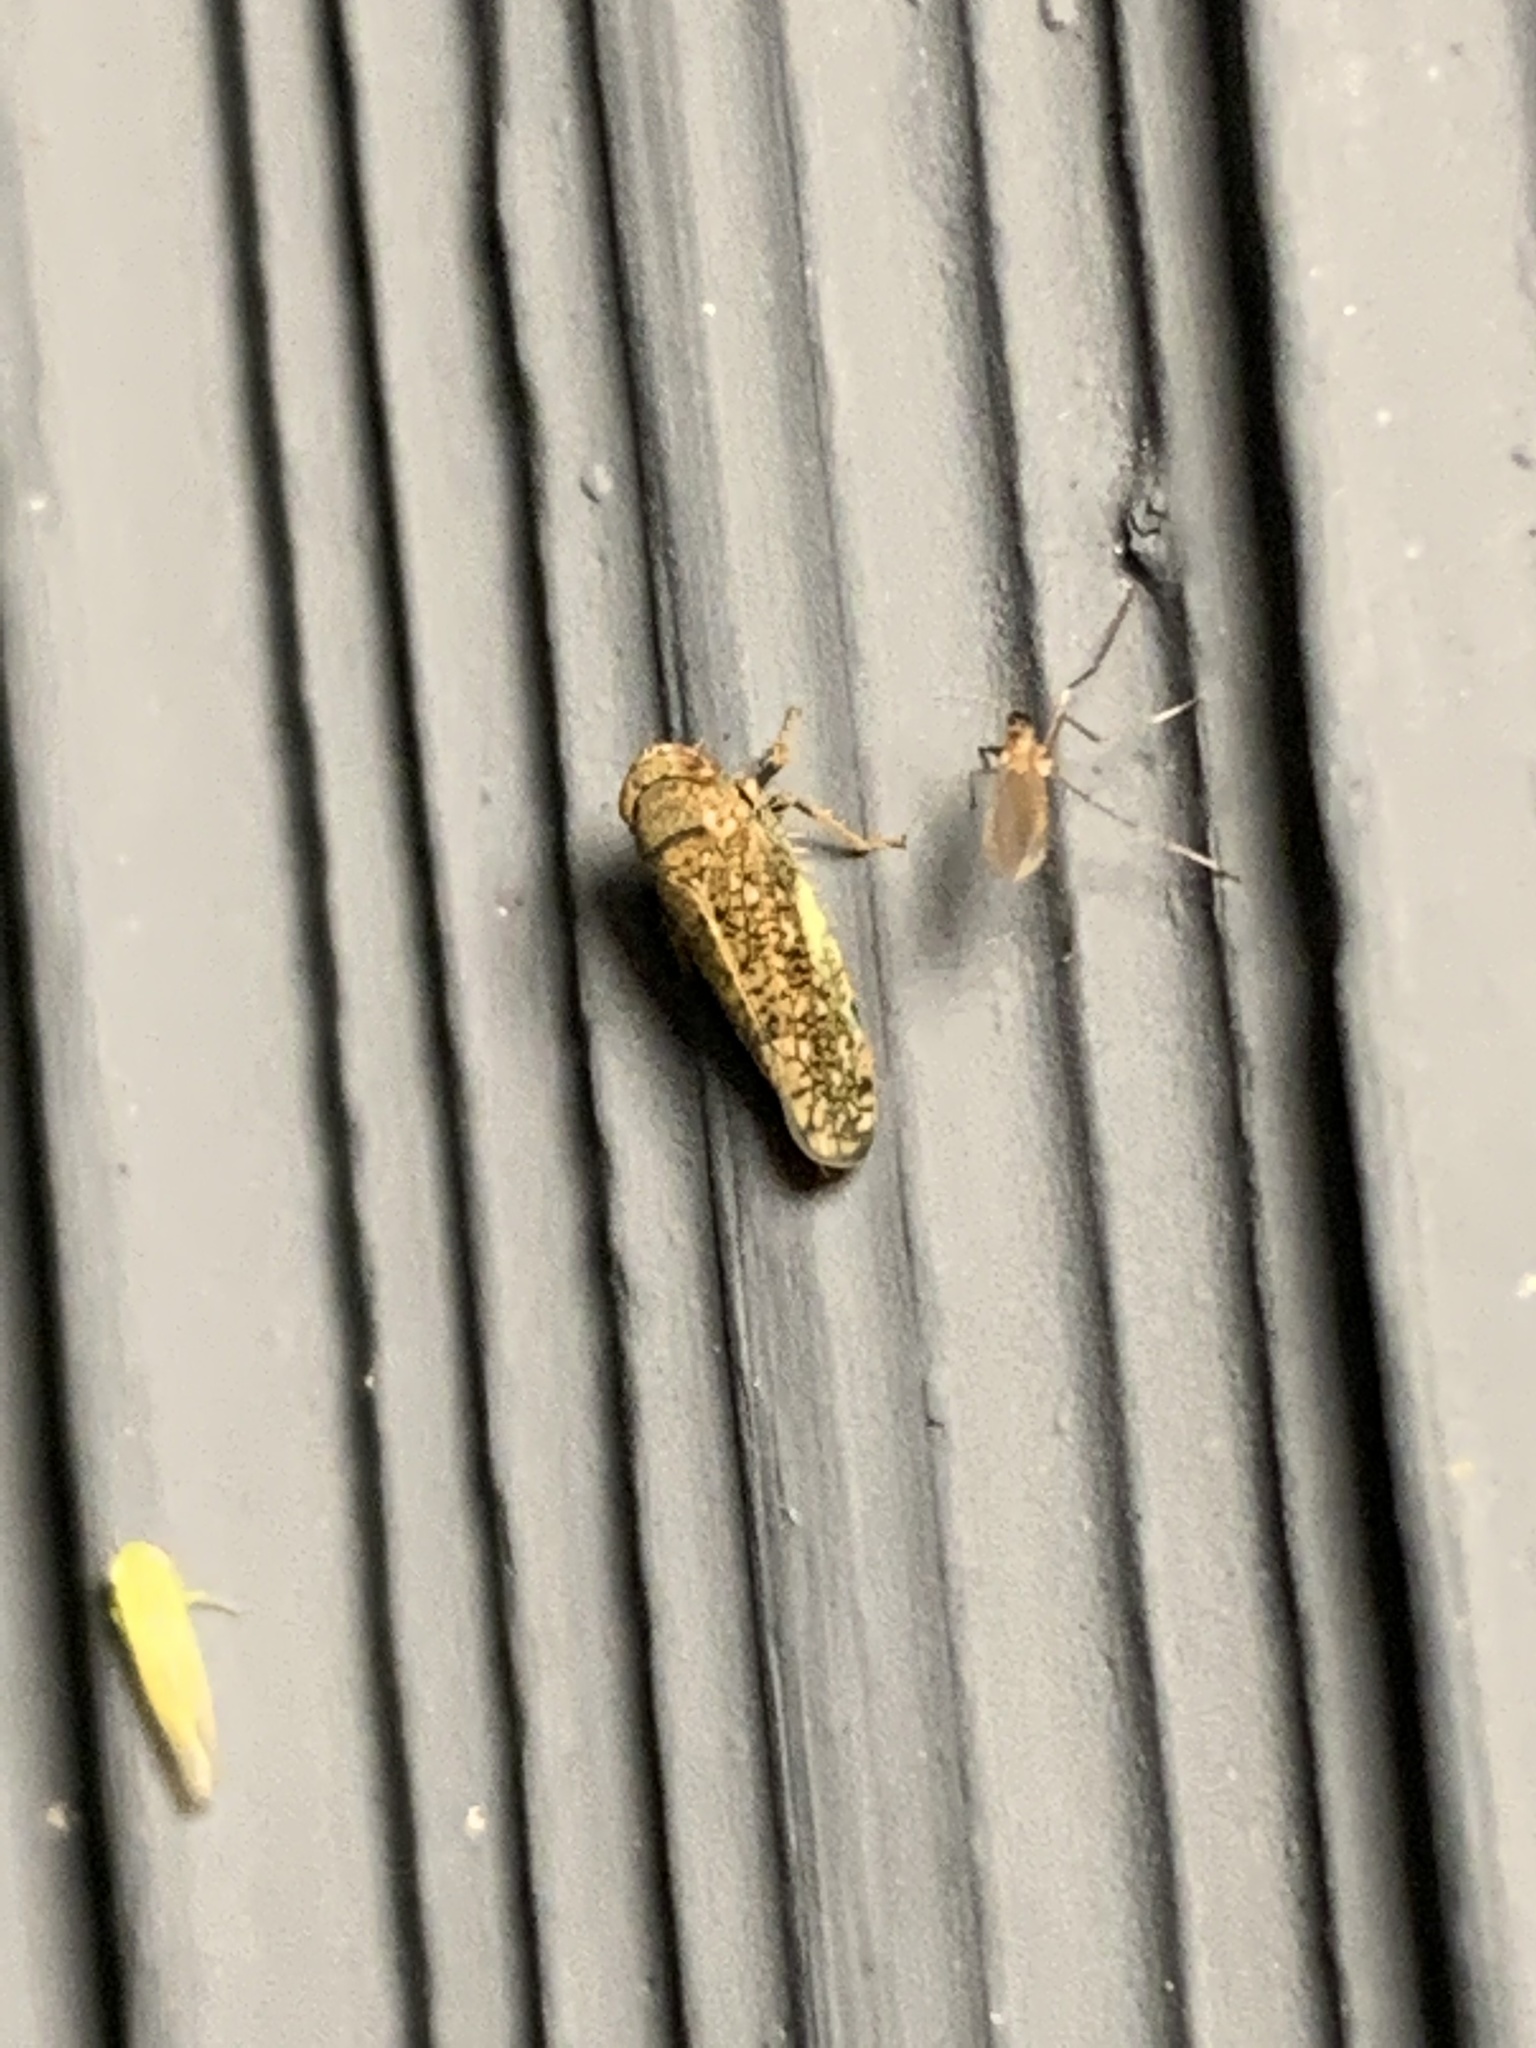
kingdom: Animalia
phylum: Arthropoda
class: Insecta
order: Hemiptera
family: Cicadellidae
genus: Orientus
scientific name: Orientus ishidae
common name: Japanese leafhopper
